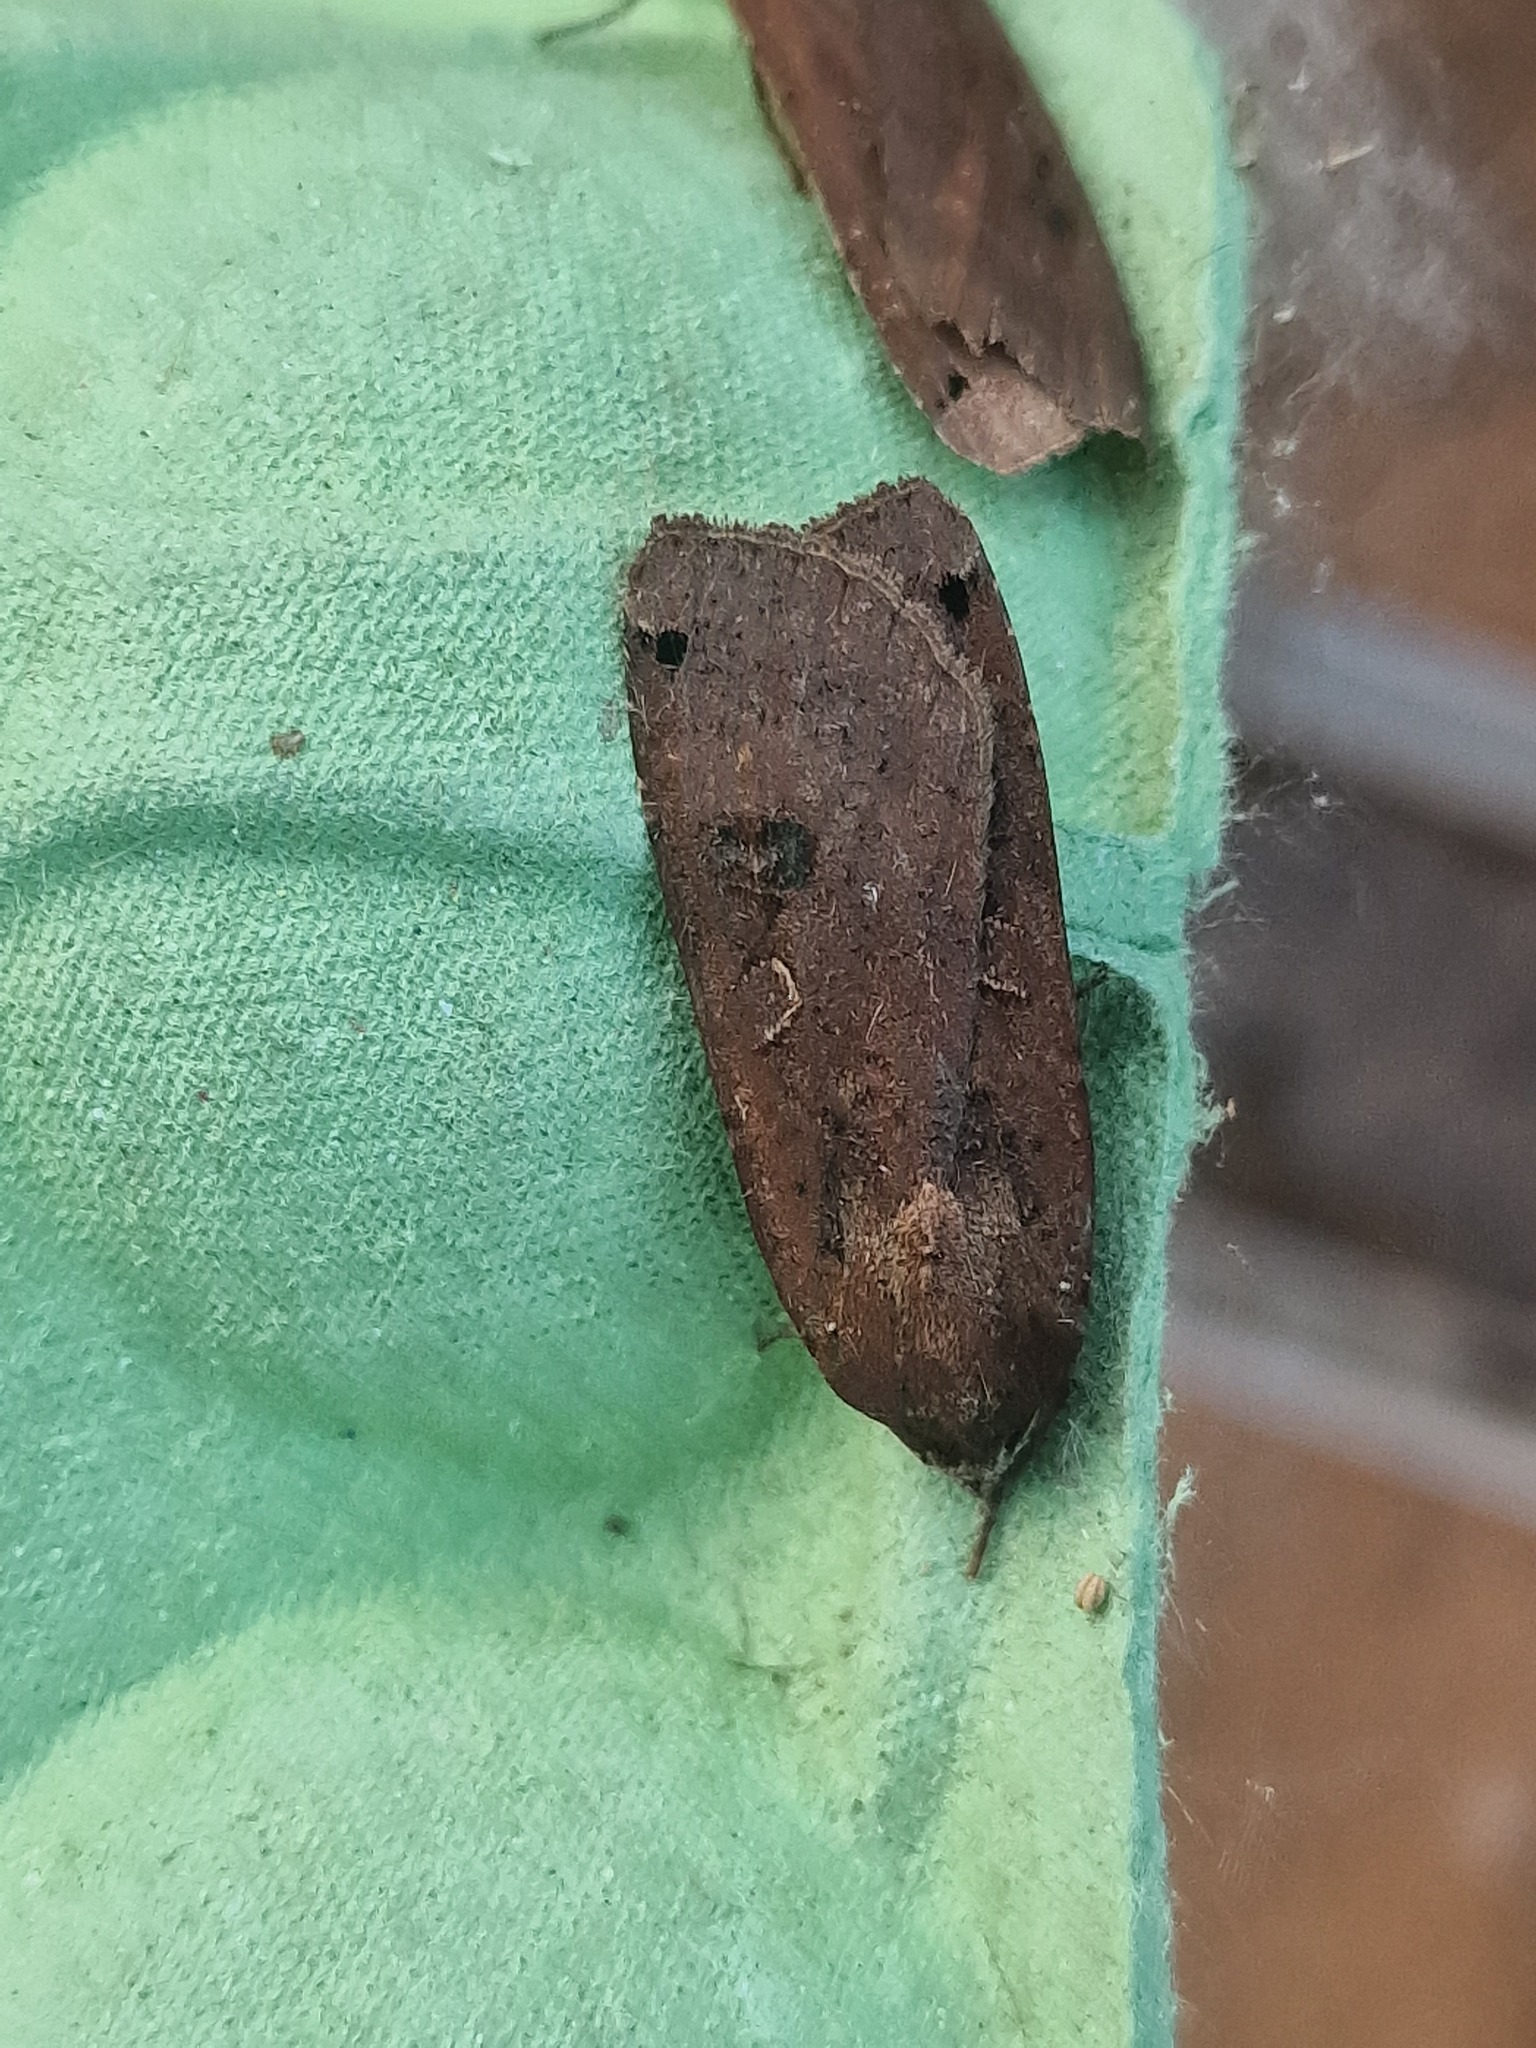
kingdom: Animalia
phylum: Arthropoda
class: Insecta
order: Lepidoptera
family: Noctuidae
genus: Noctua
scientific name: Noctua pronuba
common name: Large yellow underwing
